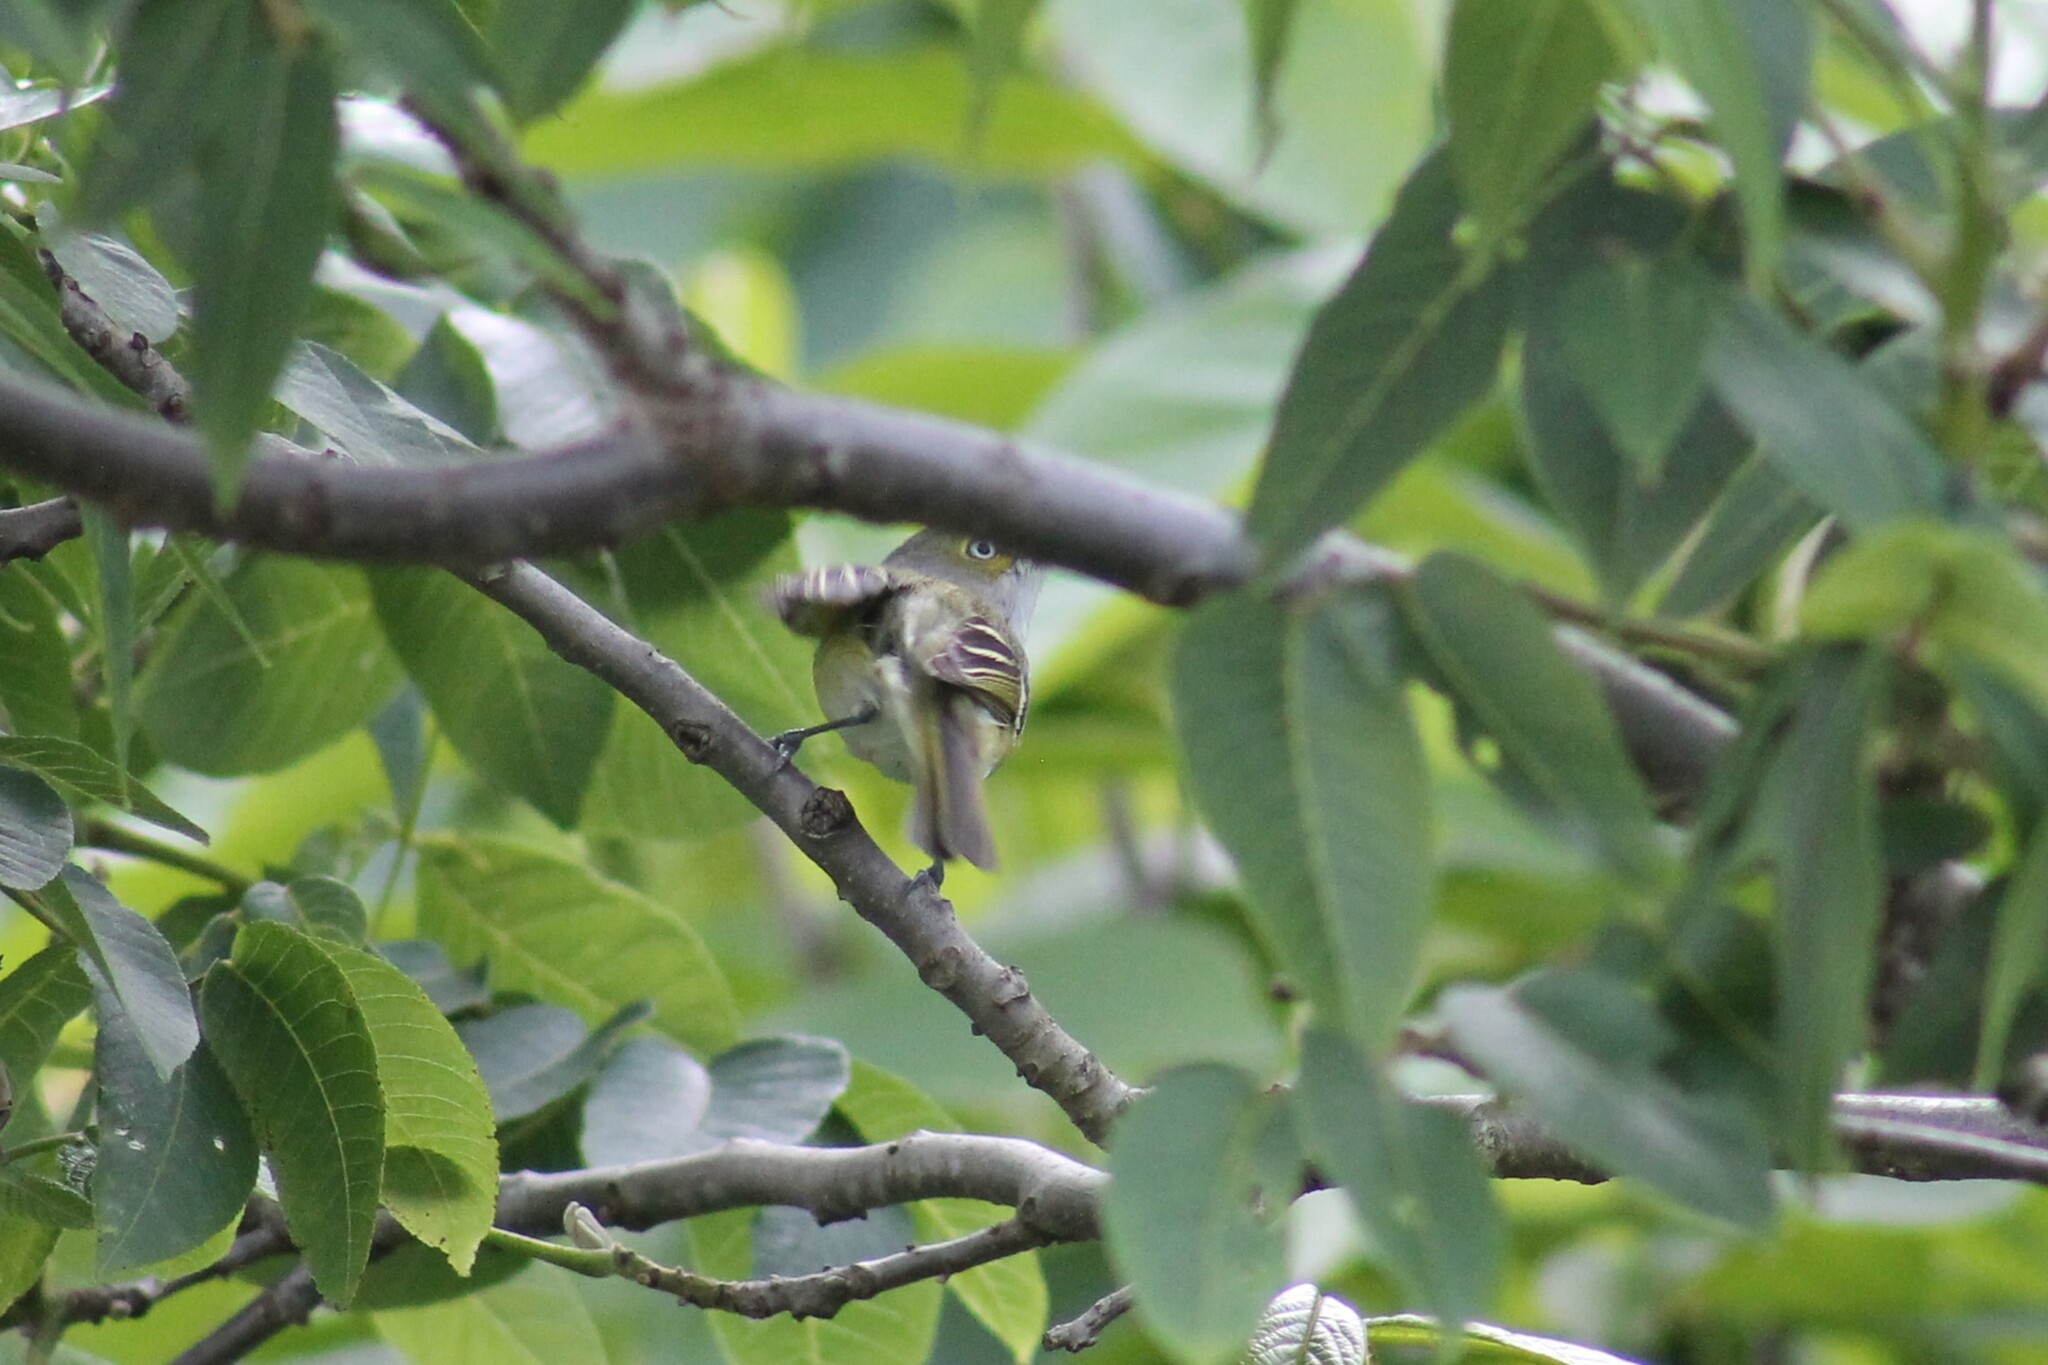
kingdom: Animalia
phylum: Chordata
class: Aves
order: Passeriformes
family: Vireonidae
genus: Vireo
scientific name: Vireo griseus
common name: White-eyed vireo
